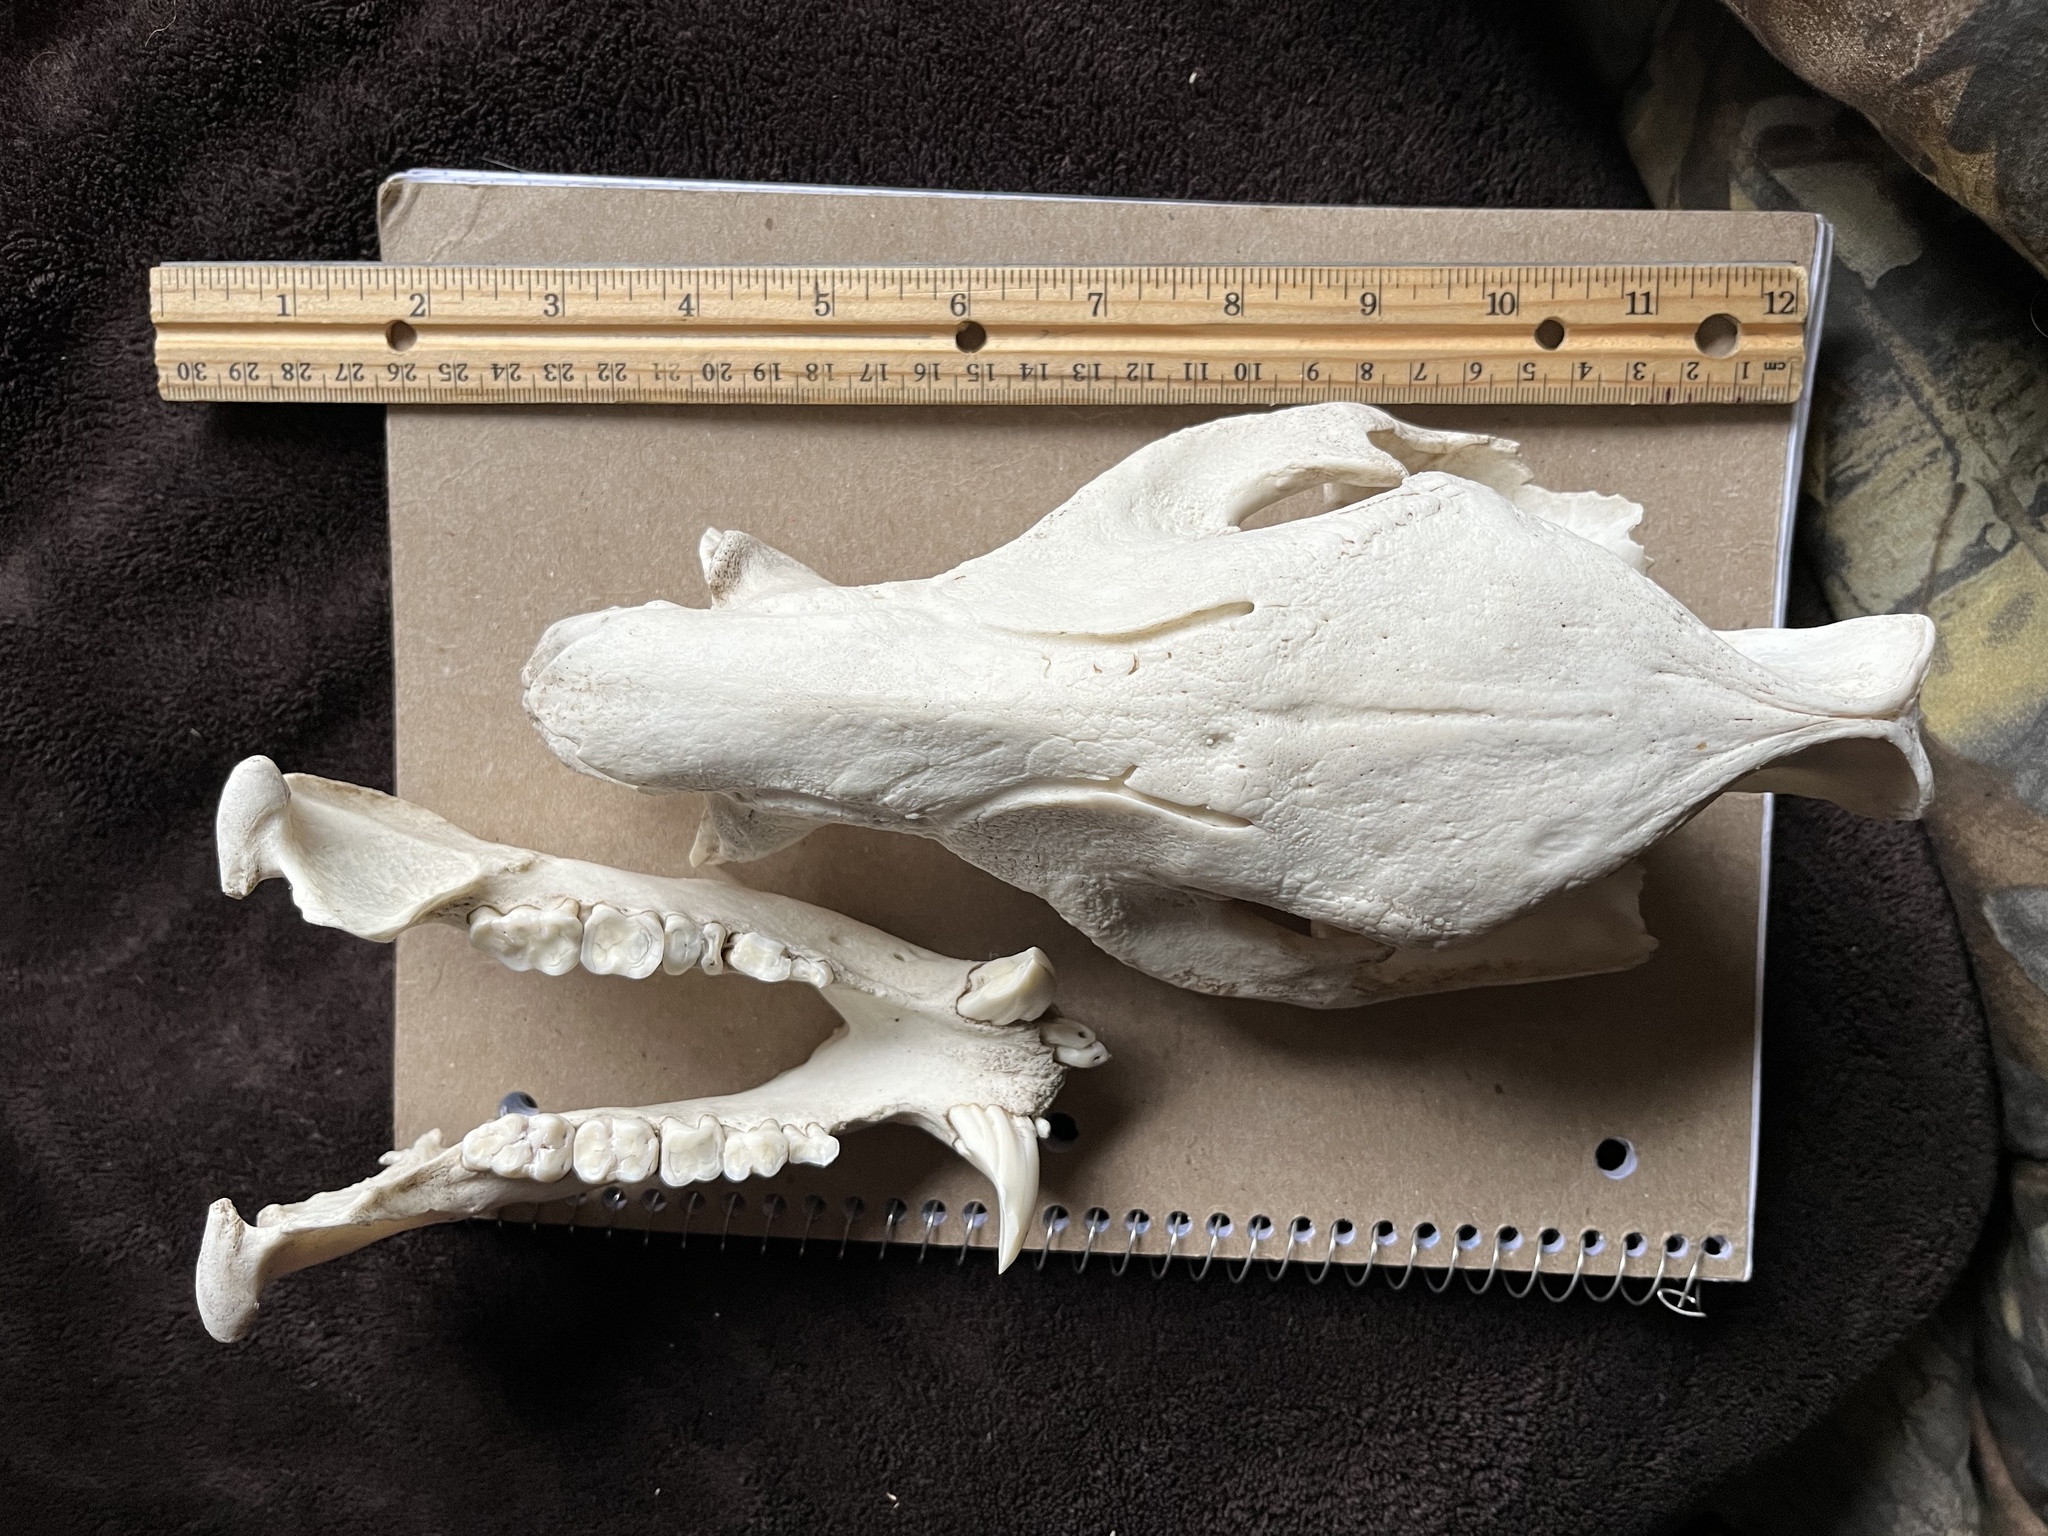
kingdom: Animalia
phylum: Chordata
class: Mammalia
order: Artiodactyla
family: Tayassuidae
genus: Pecari
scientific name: Pecari tajacu
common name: Collared peccary
